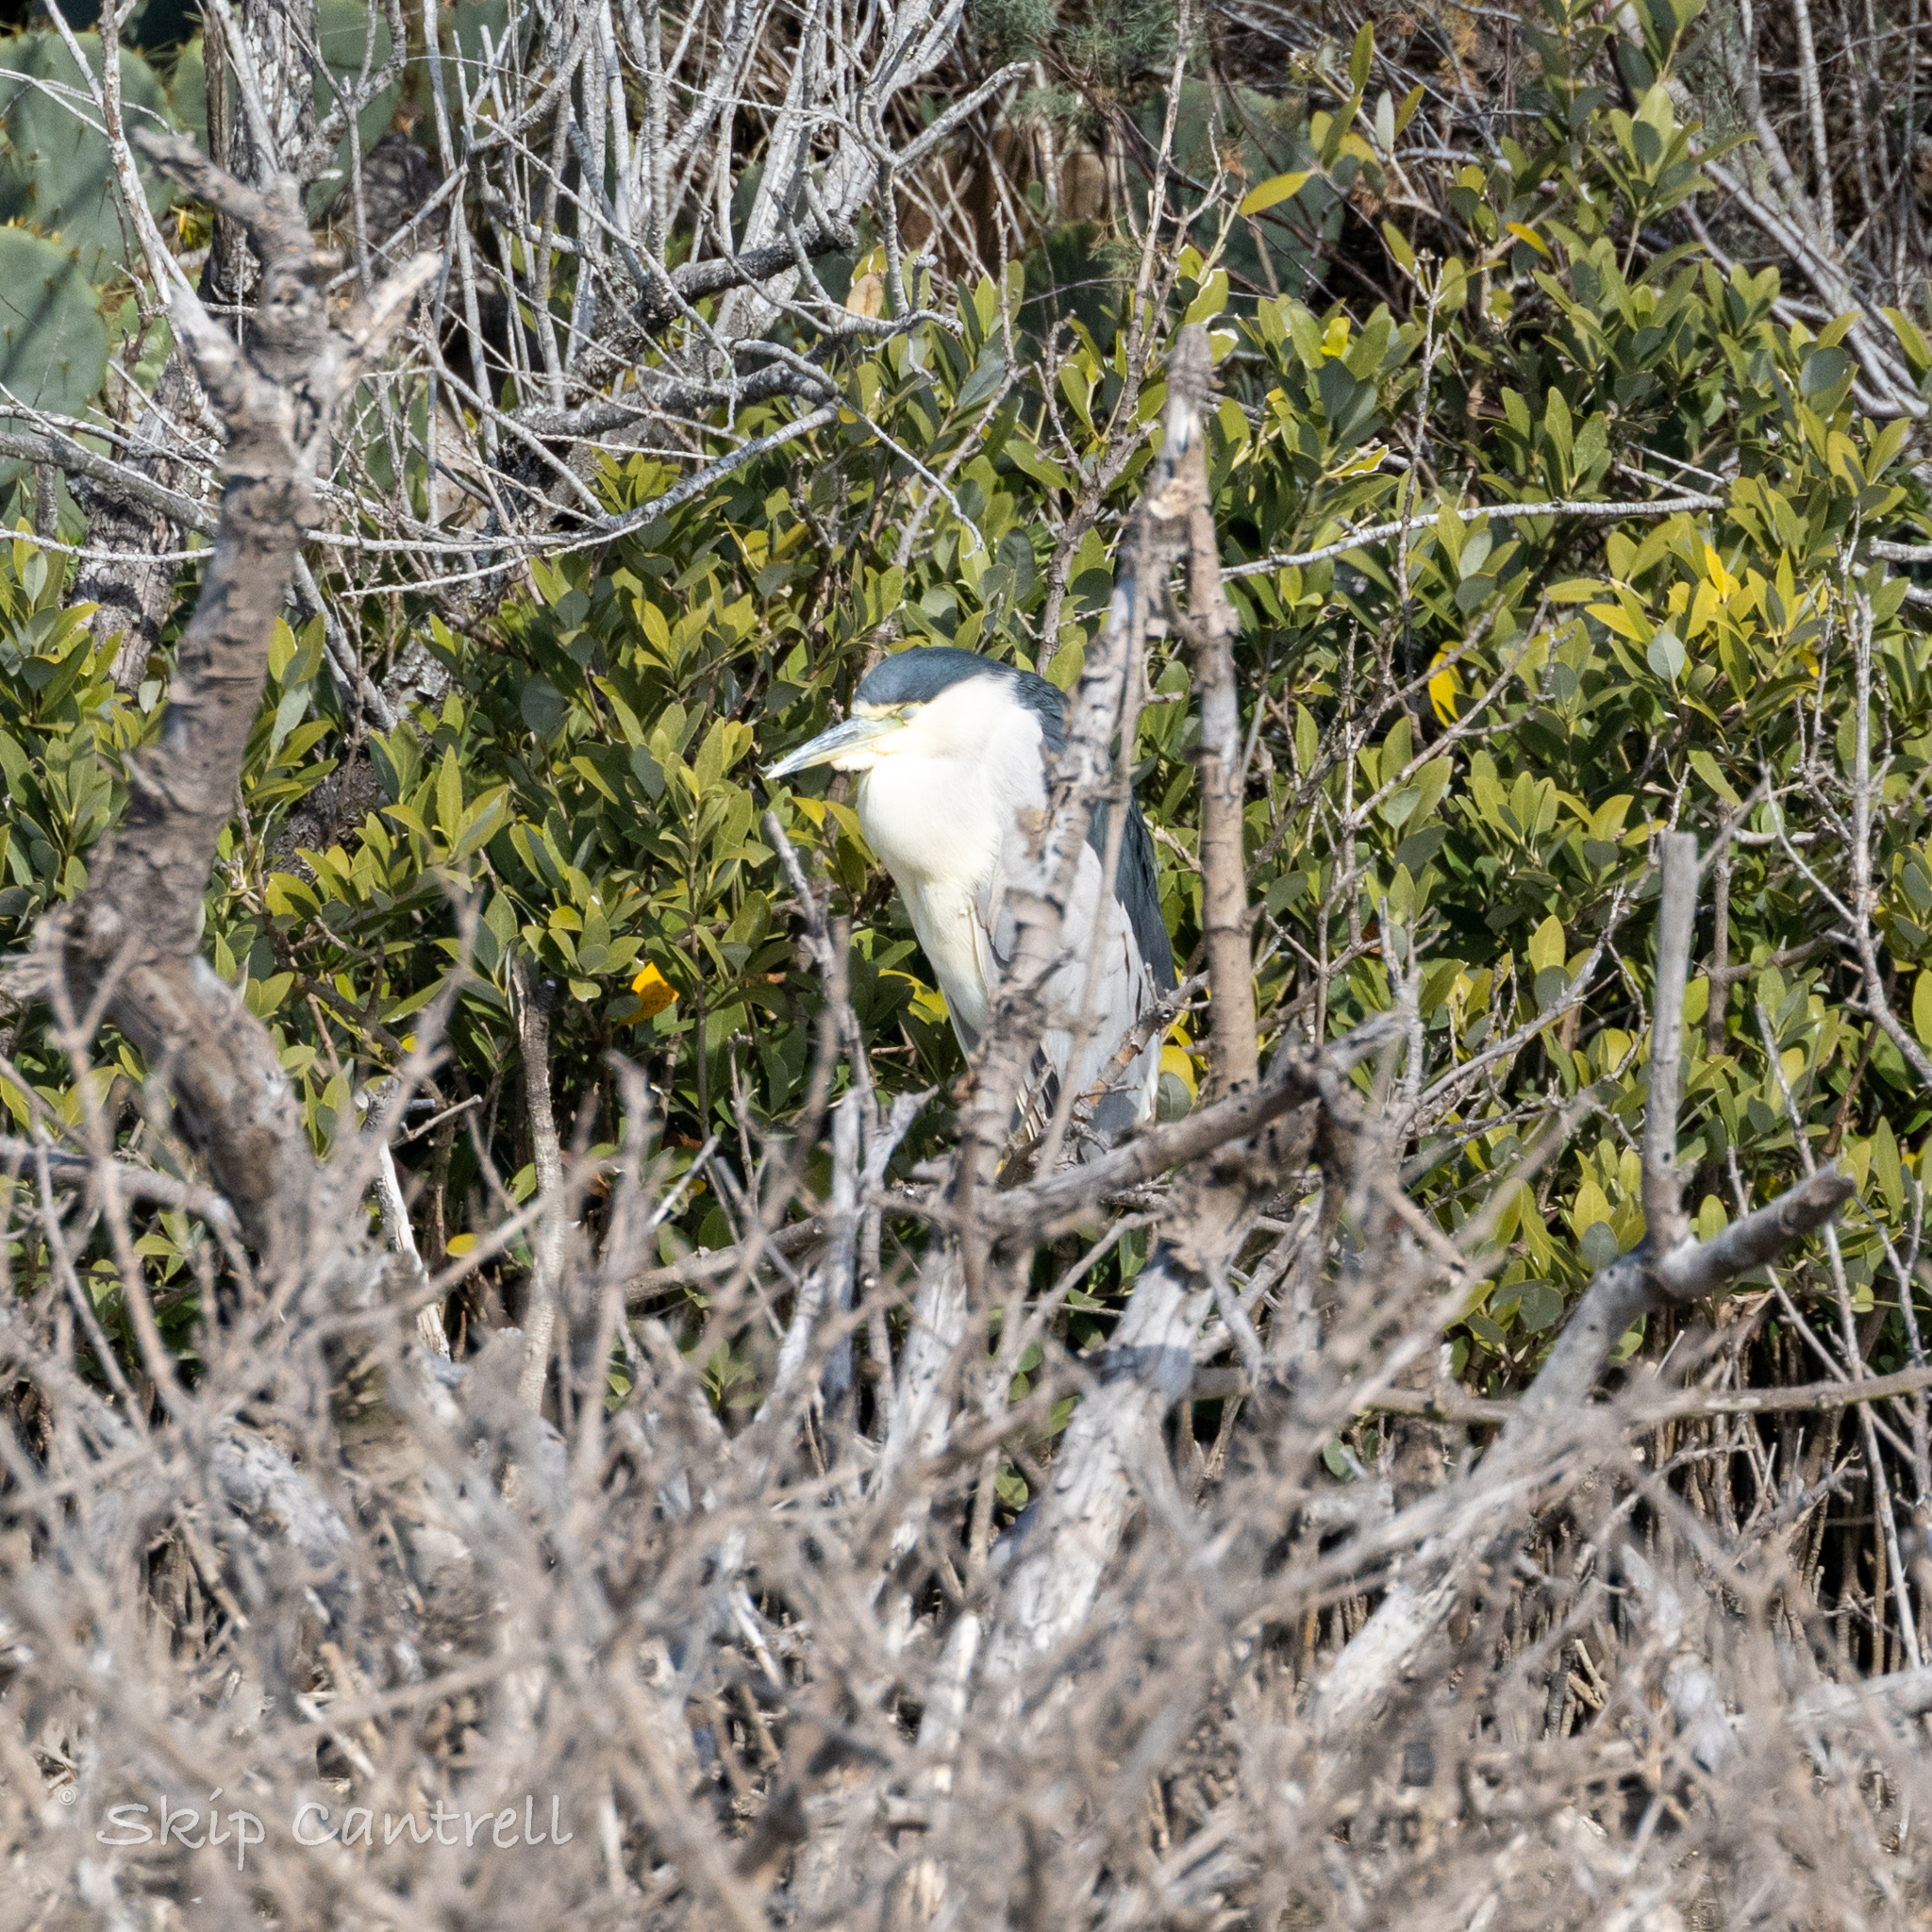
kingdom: Animalia
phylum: Chordata
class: Aves
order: Pelecaniformes
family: Ardeidae
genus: Nycticorax
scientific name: Nycticorax nycticorax
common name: Black-crowned night heron
